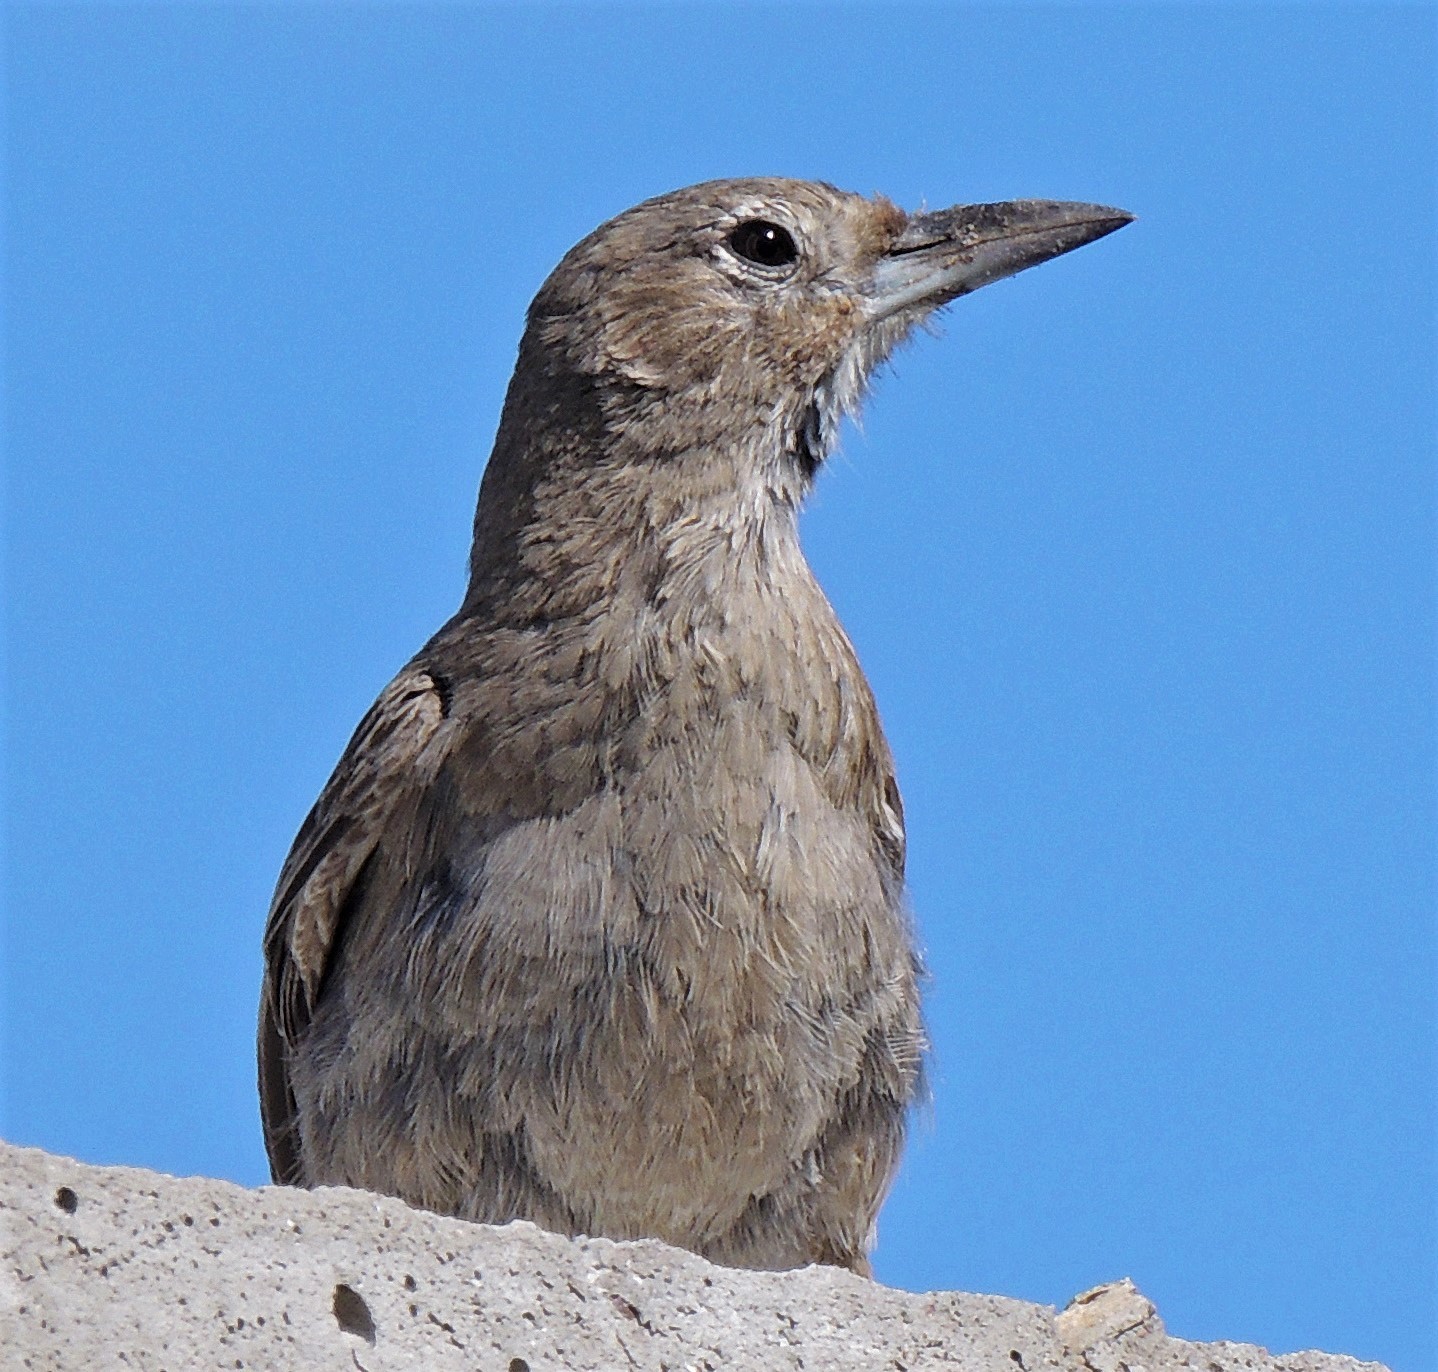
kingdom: Animalia
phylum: Chordata
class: Aves
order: Passeriformes
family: Furnariidae
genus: Pseudoseisura
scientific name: Pseudoseisura gutturalis
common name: White-throated cacholote
